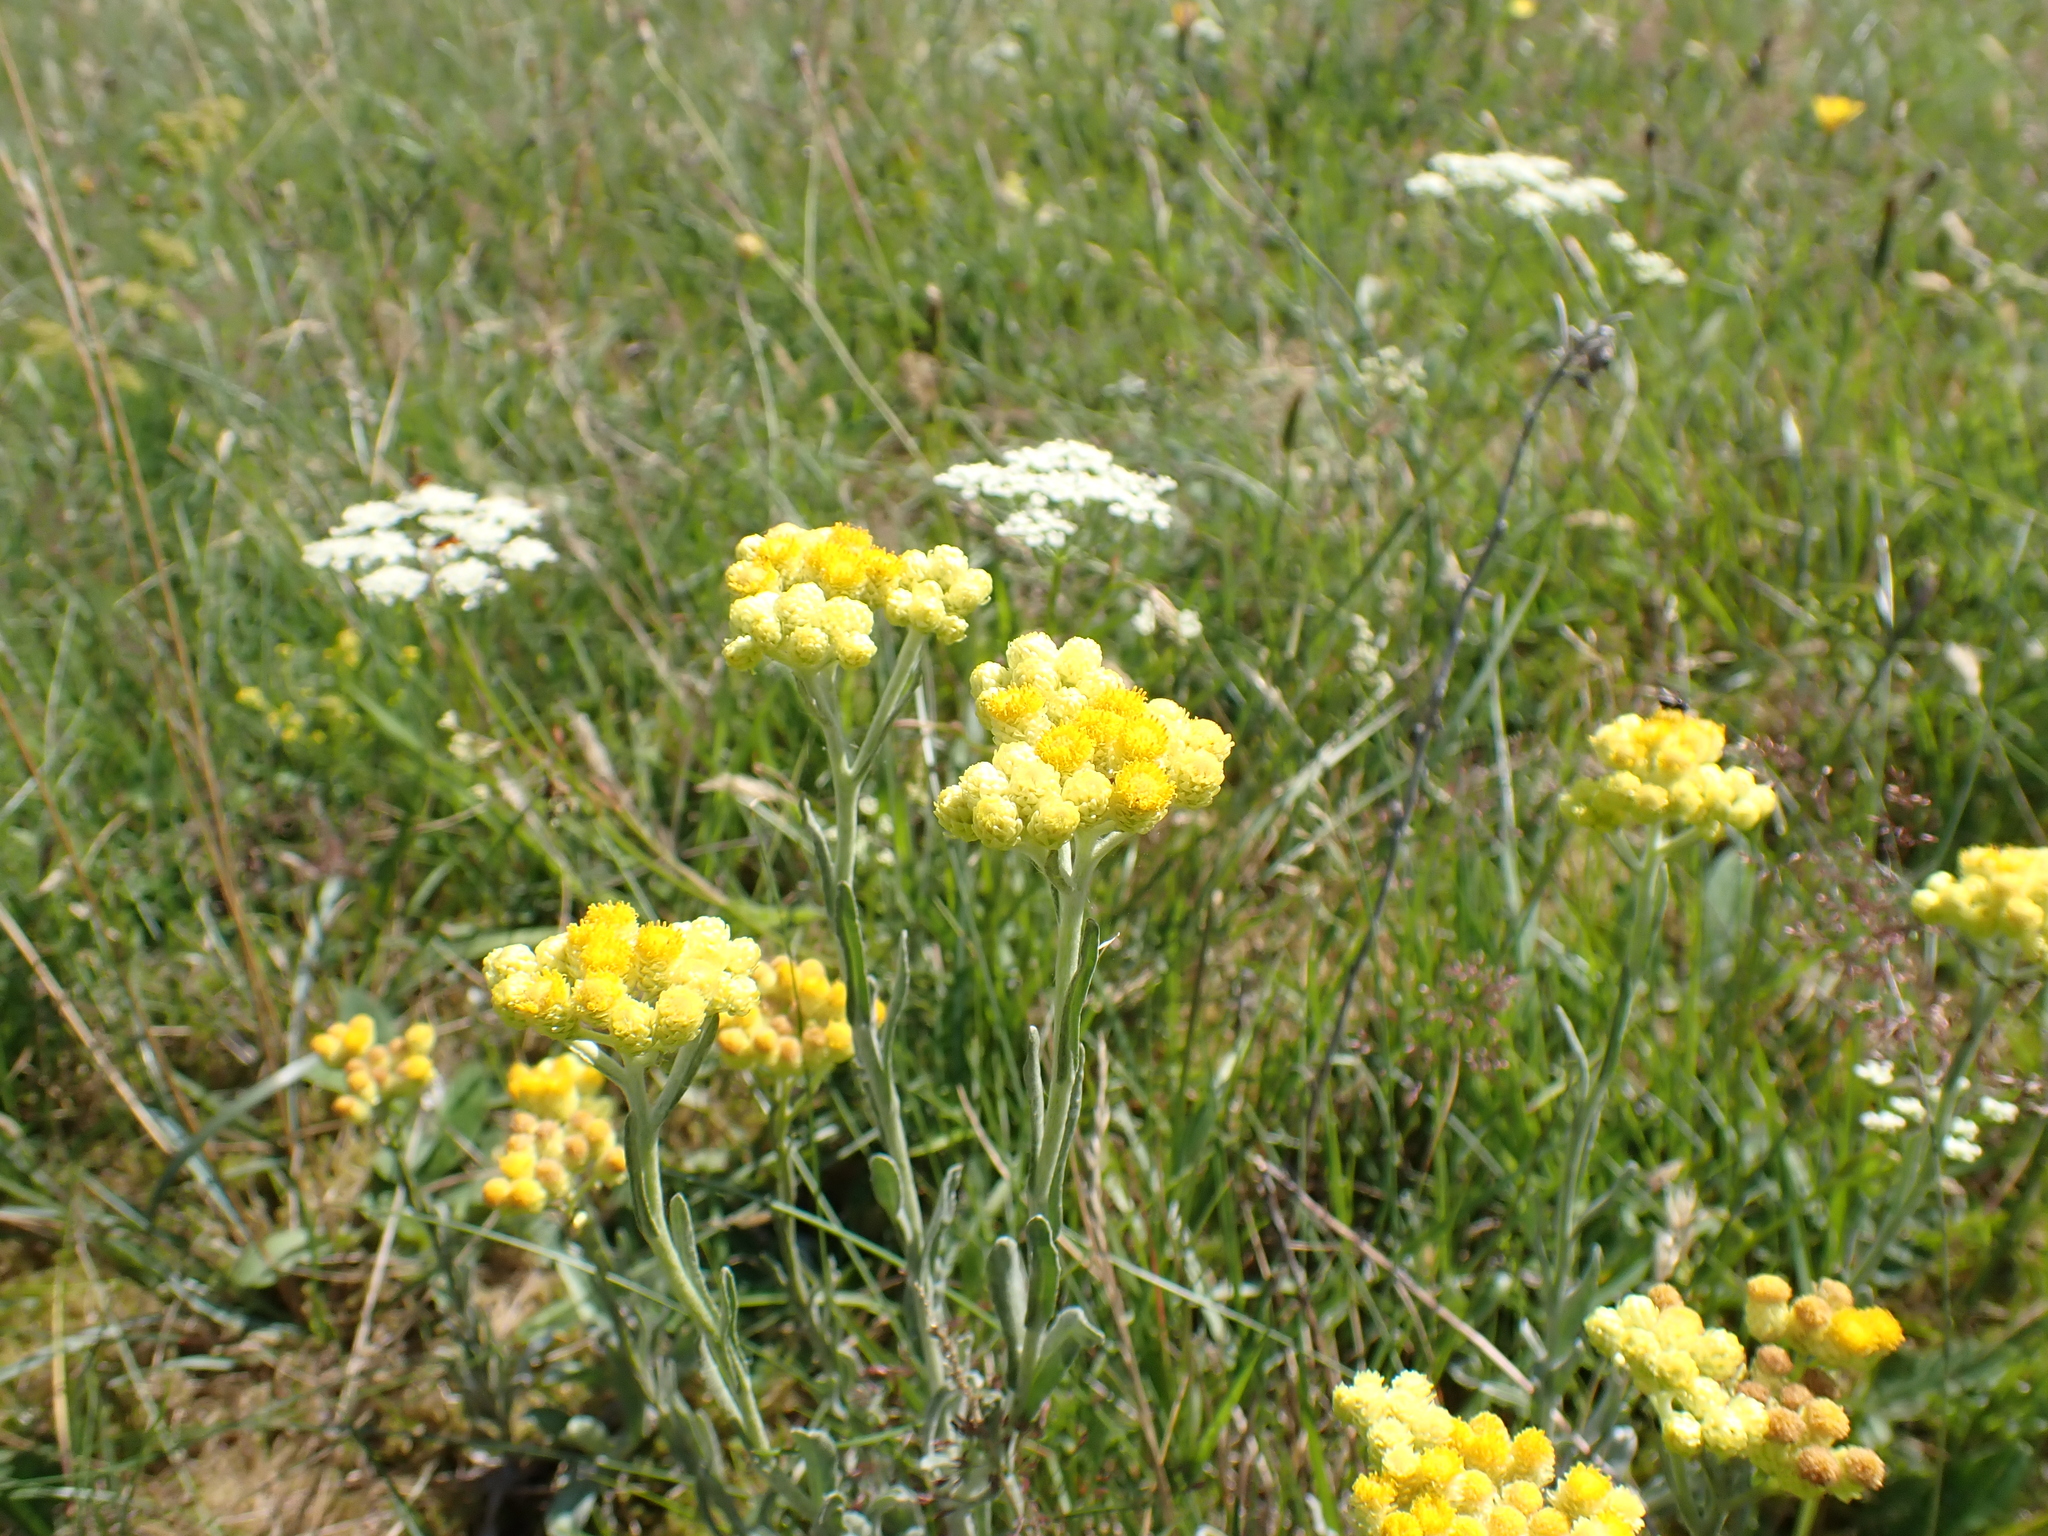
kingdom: Plantae
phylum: Tracheophyta
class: Magnoliopsida
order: Asterales
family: Asteraceae
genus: Helichrysum
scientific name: Helichrysum arenarium
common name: Strawflower
